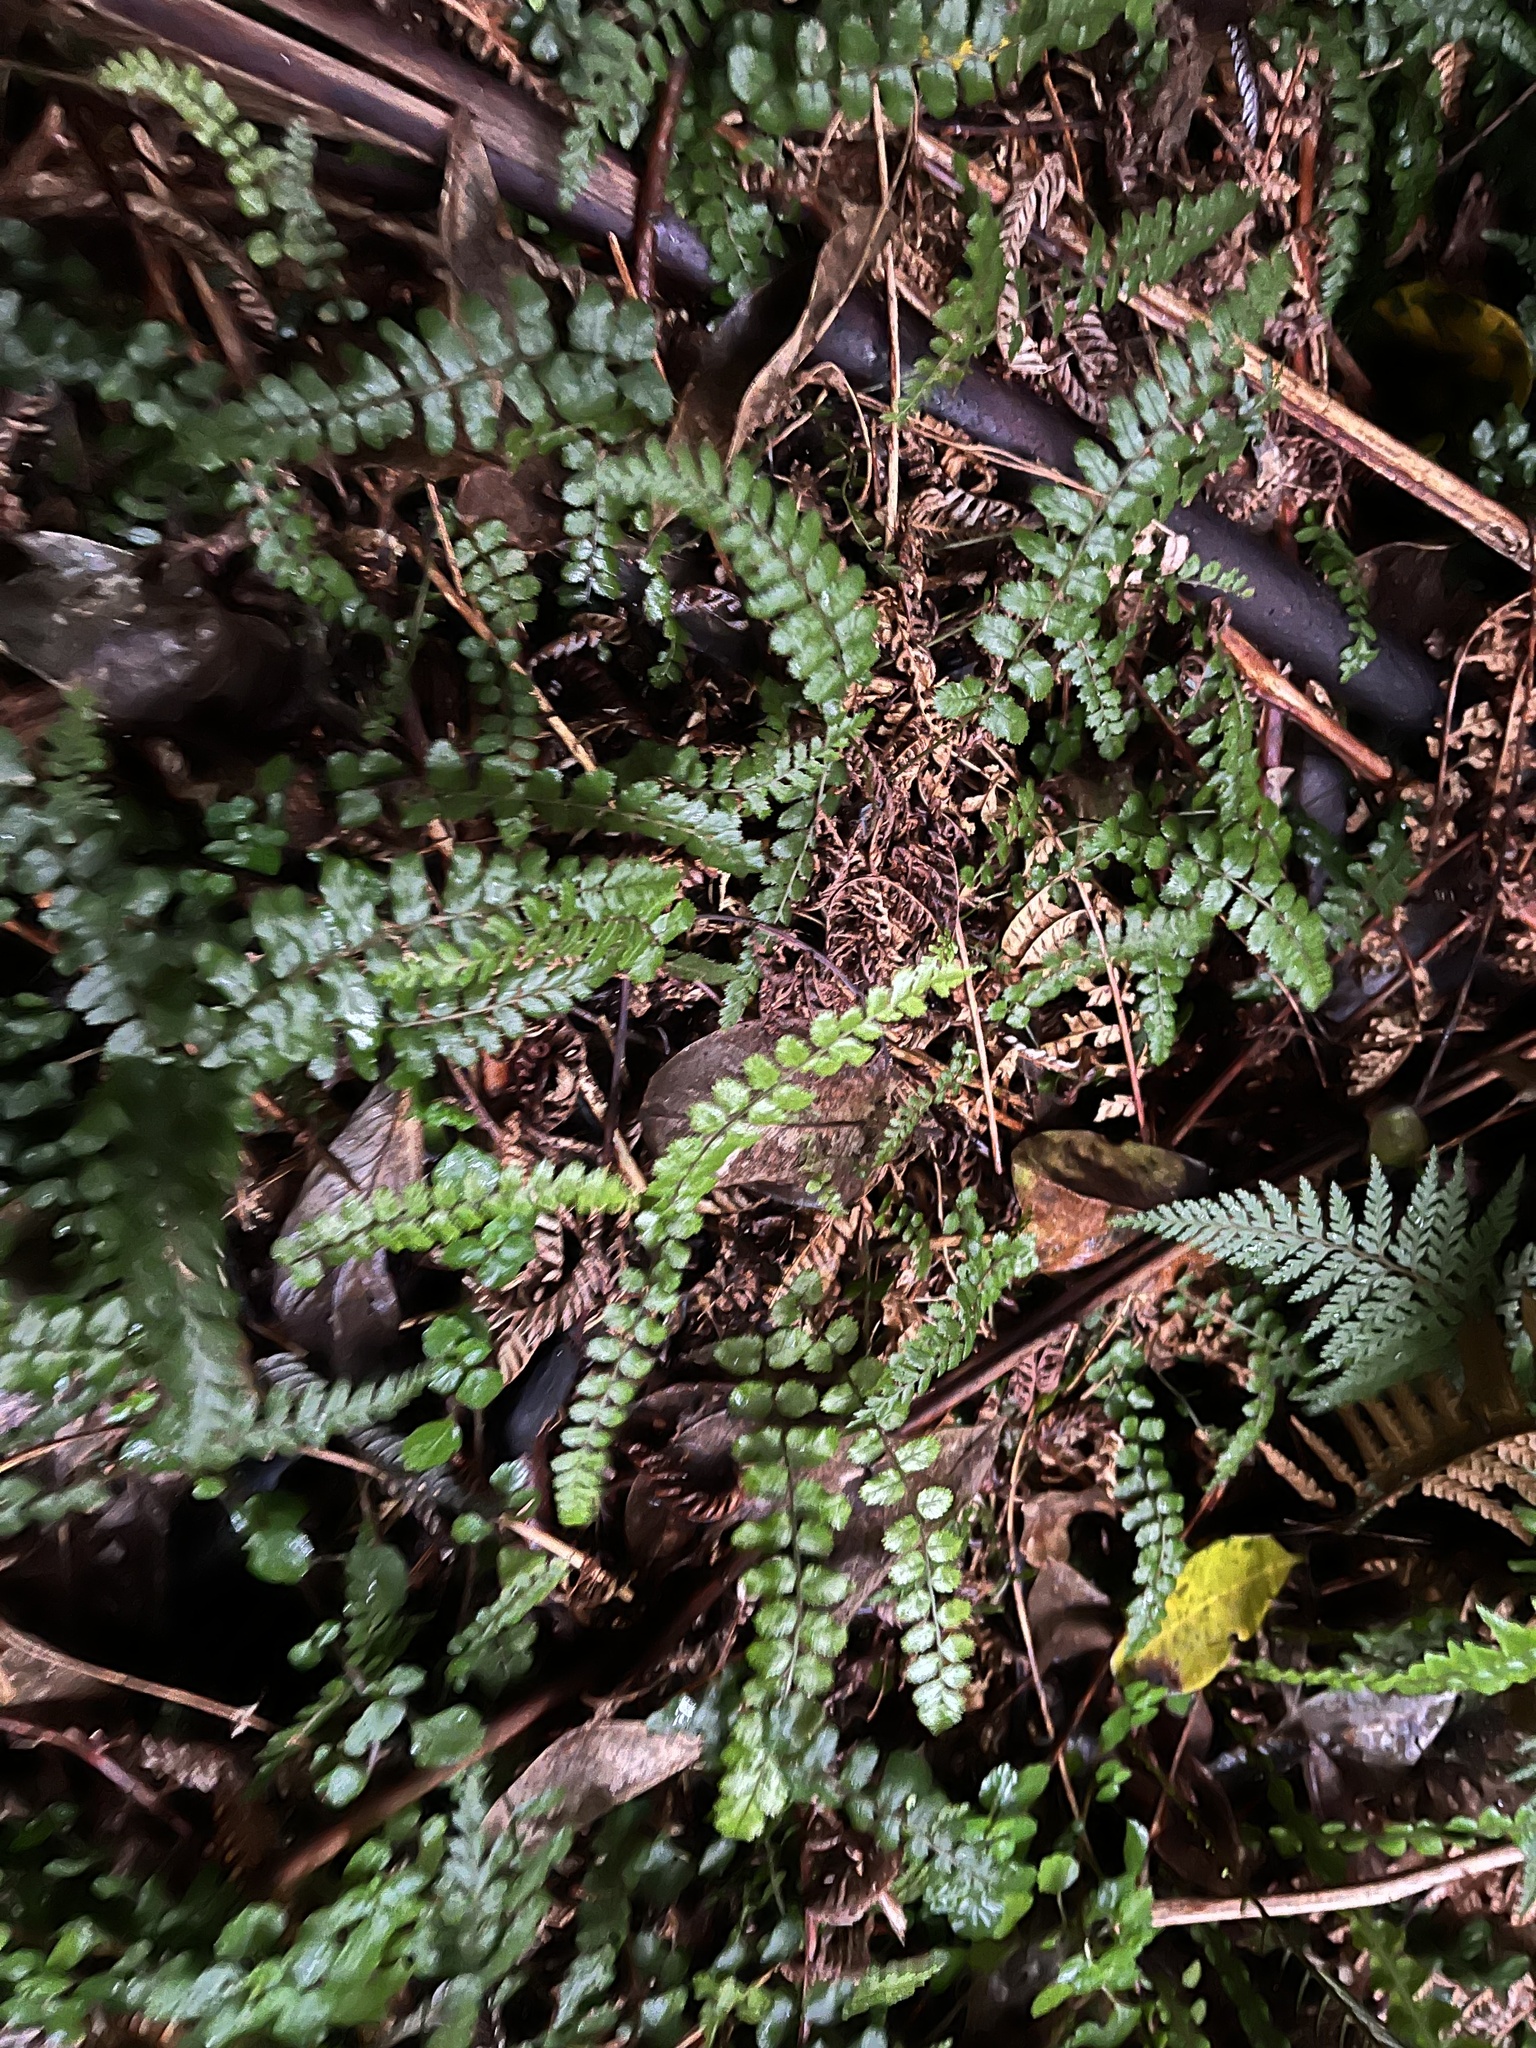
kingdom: Plantae
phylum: Tracheophyta
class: Polypodiopsida
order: Polypodiales
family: Blechnaceae
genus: Icarus
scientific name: Icarus filiformis
